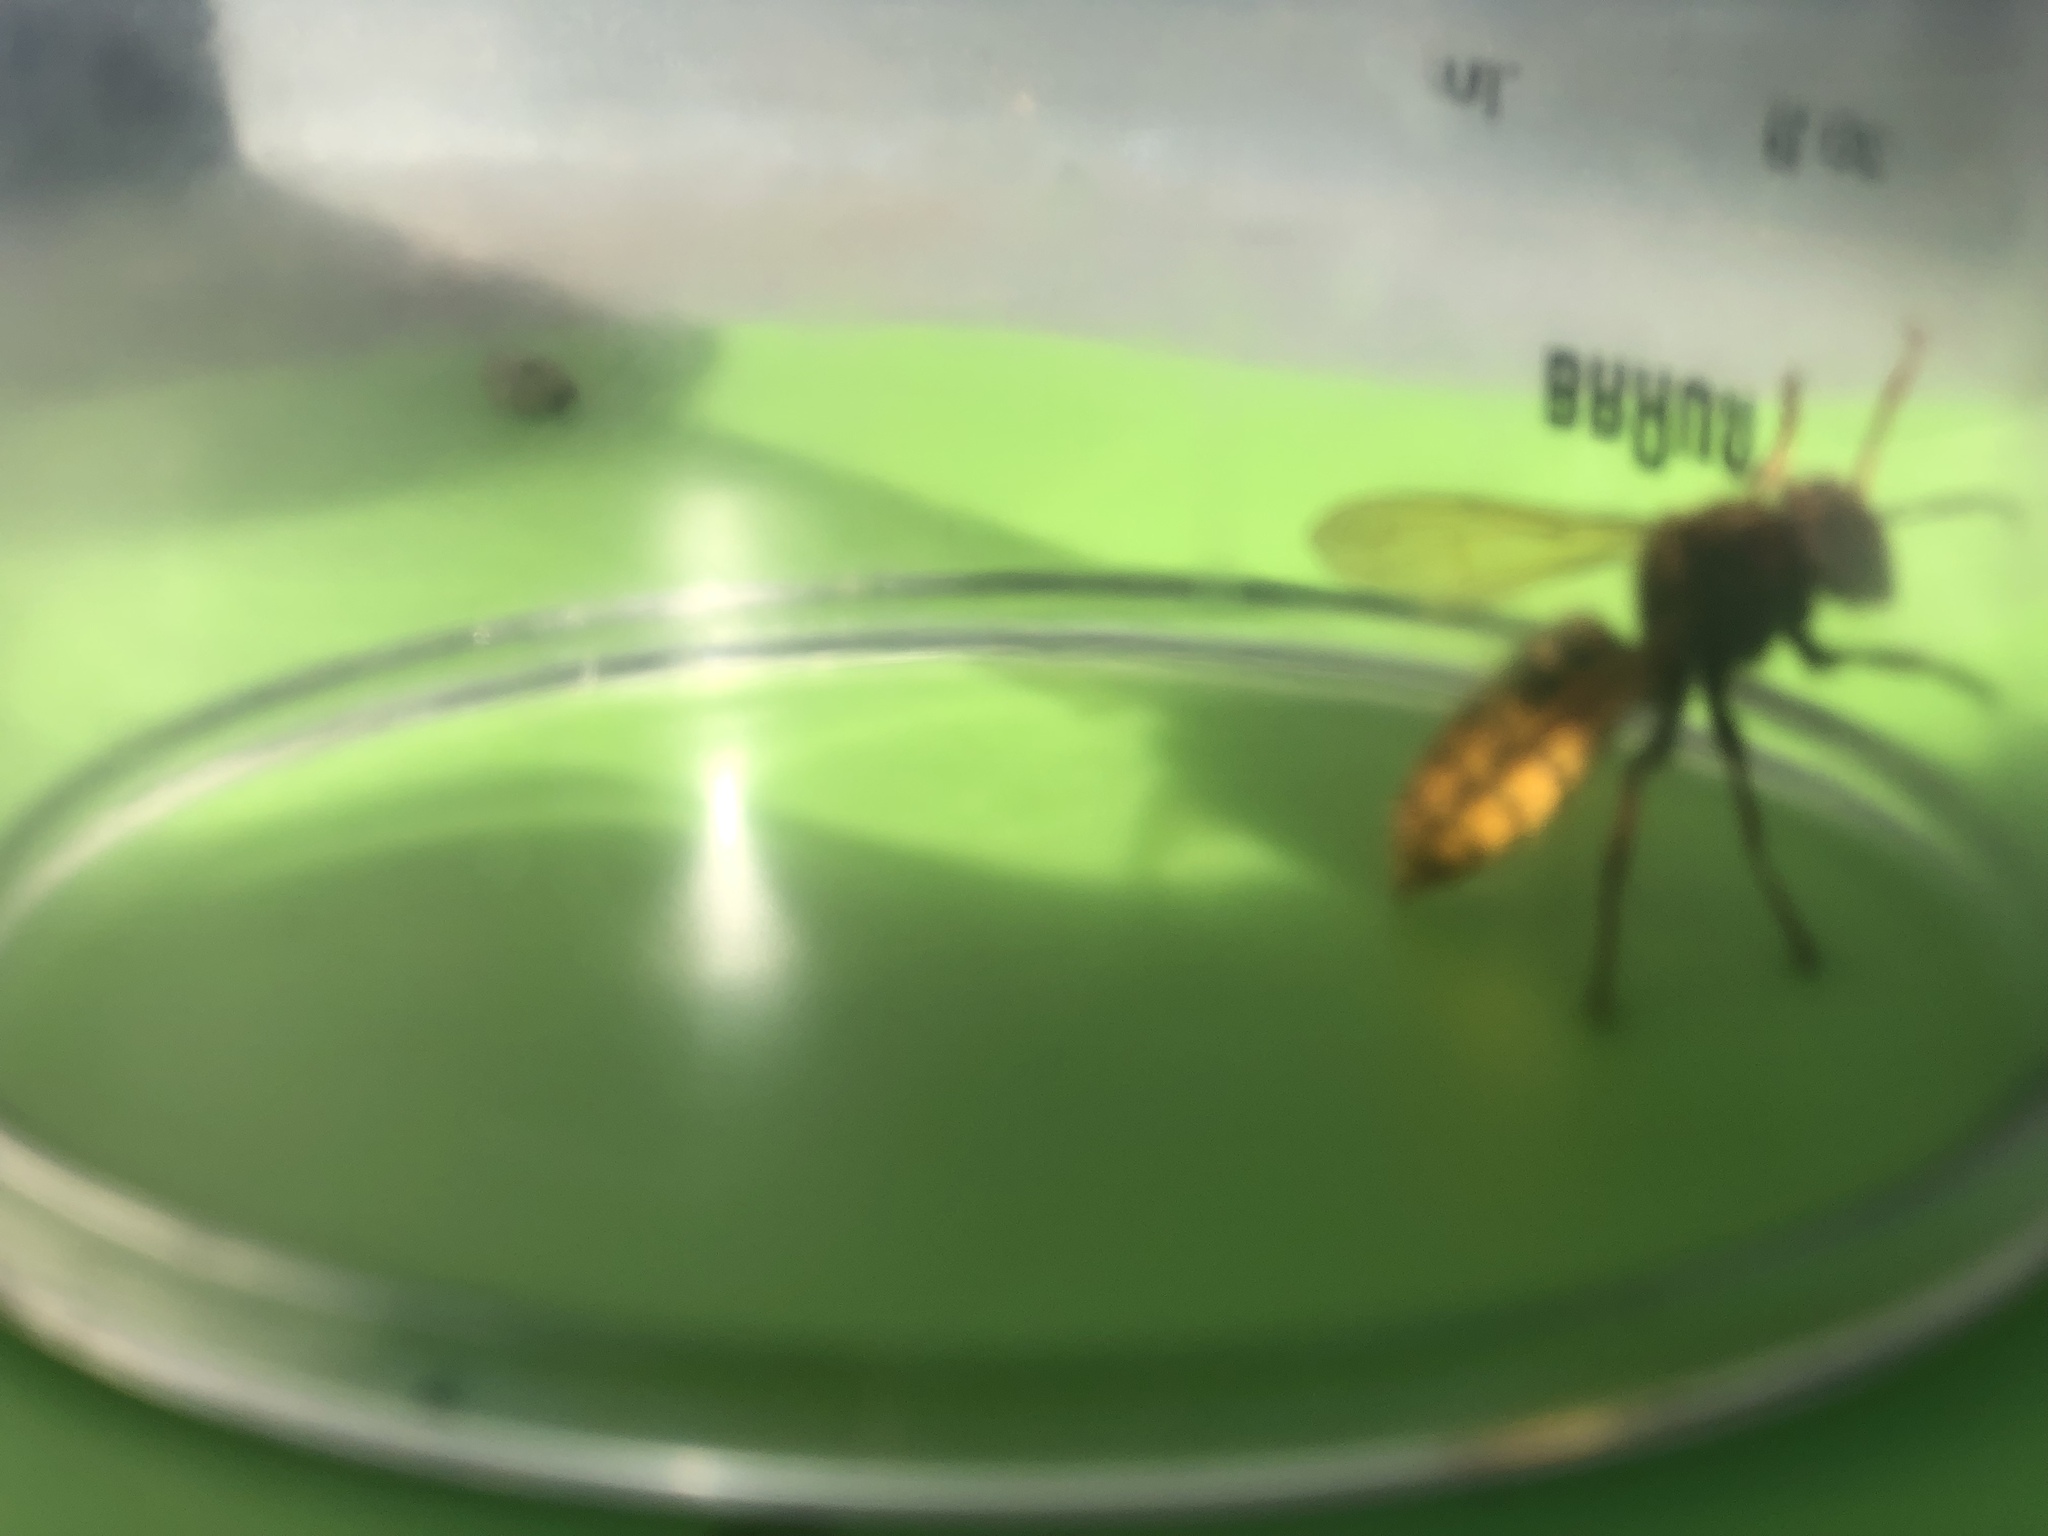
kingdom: Animalia
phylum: Arthropoda
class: Insecta
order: Hymenoptera
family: Vespidae
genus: Vespa
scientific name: Vespa crabro
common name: Hornet
